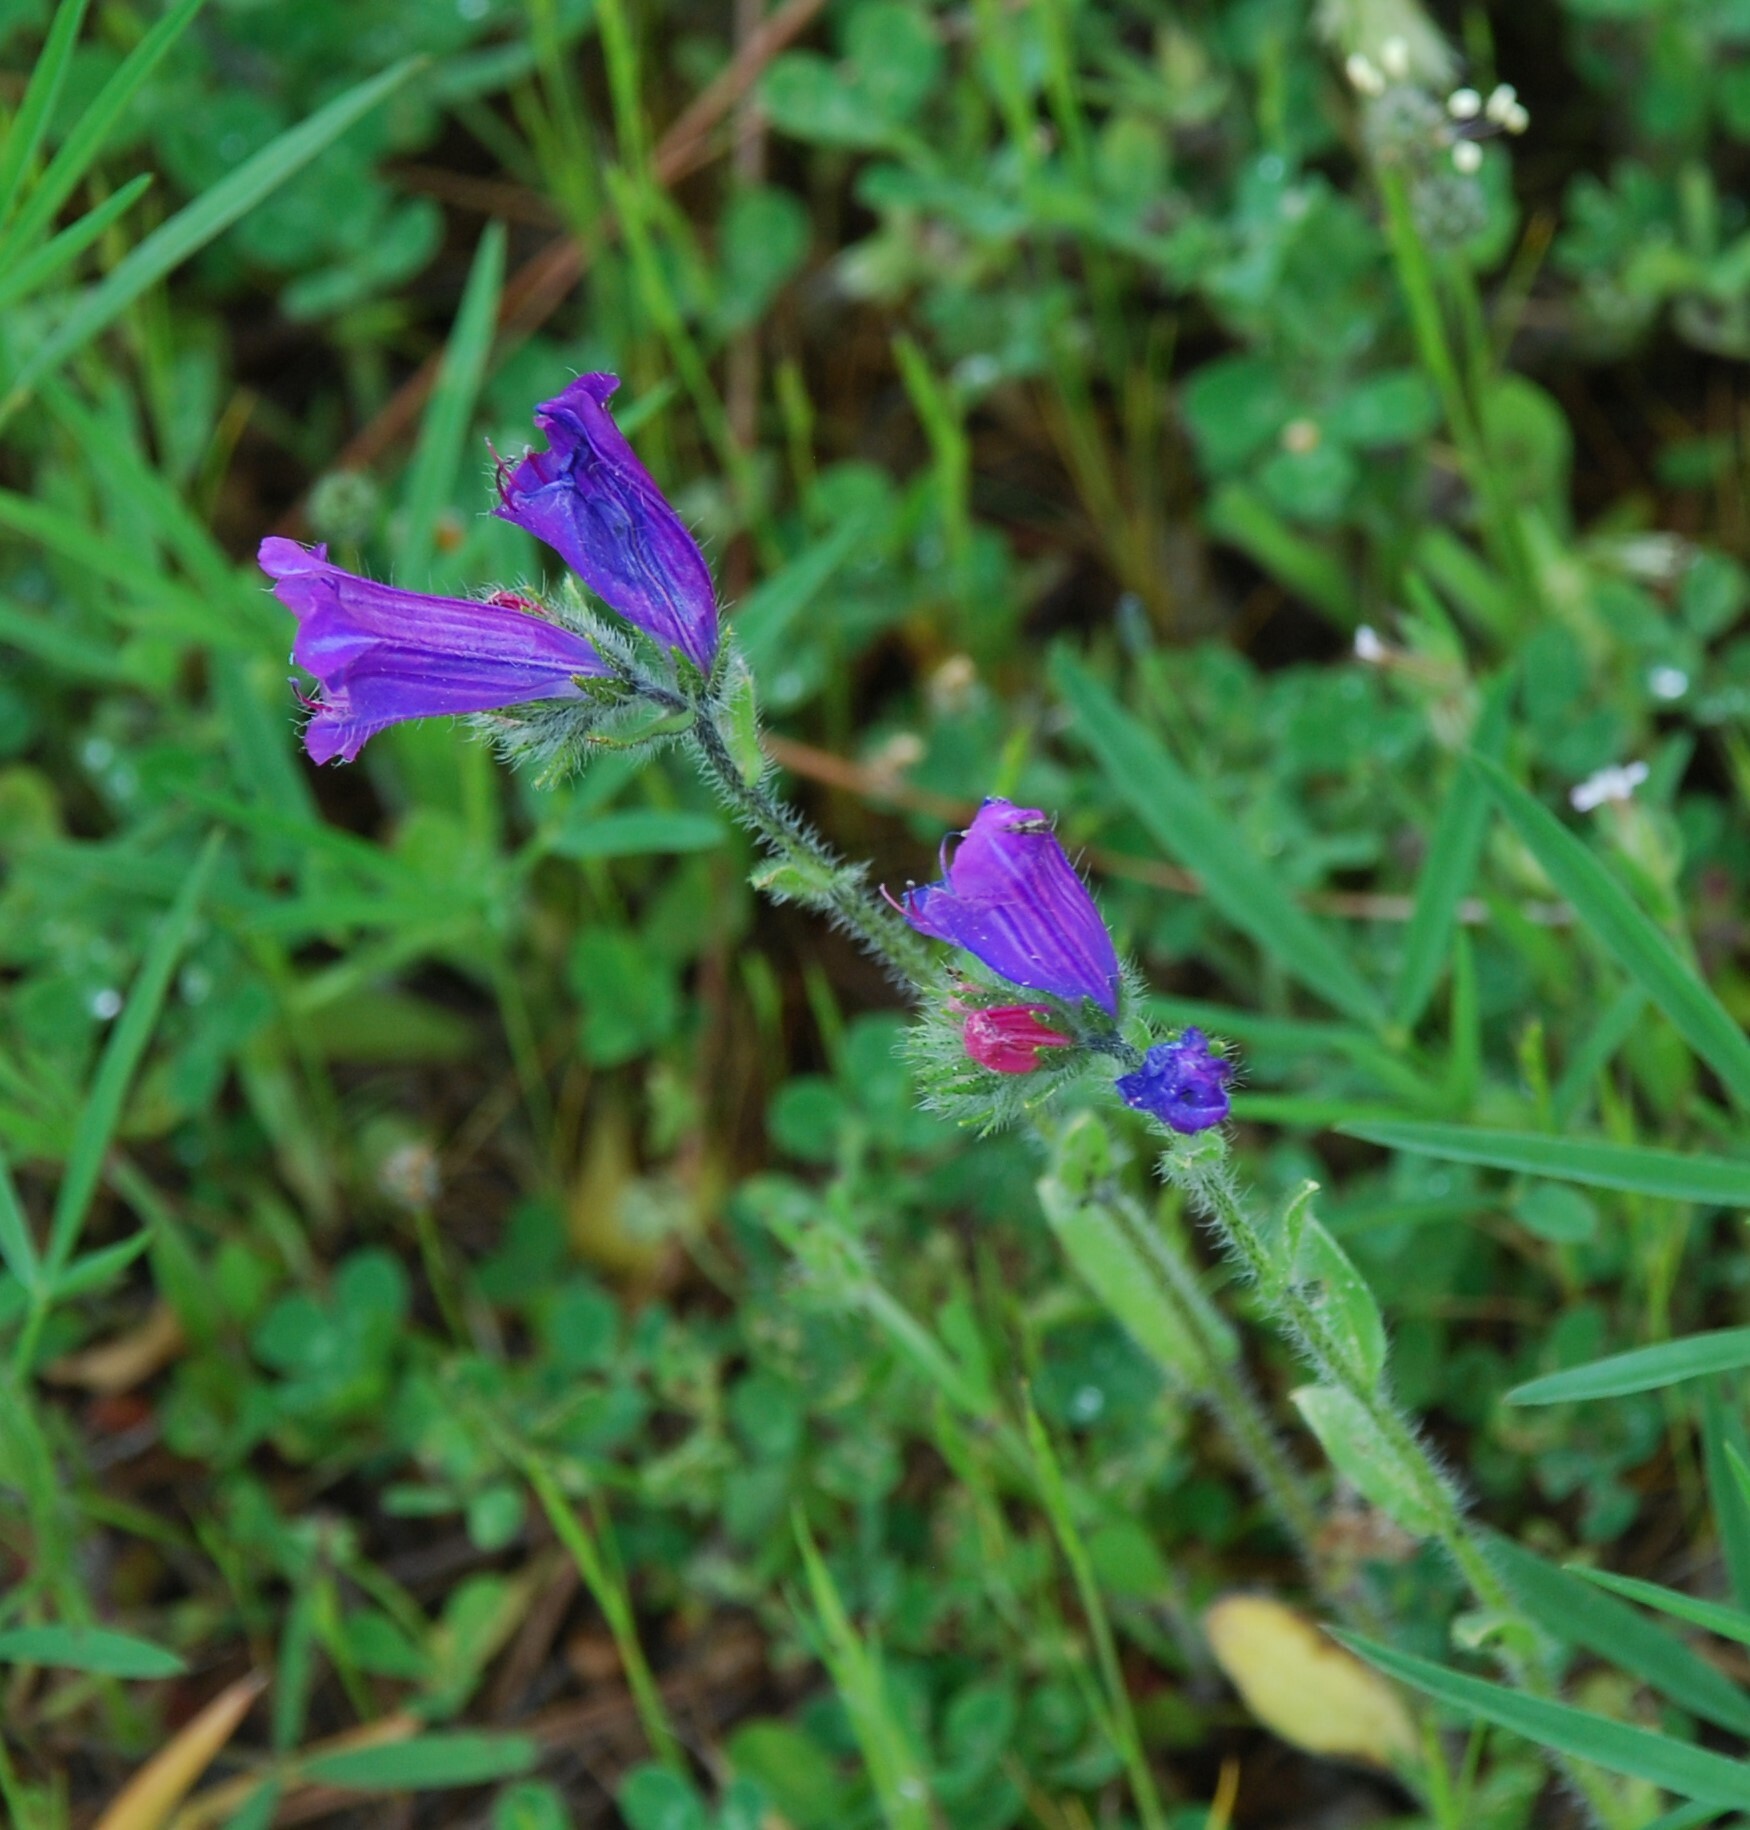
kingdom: Plantae
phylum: Tracheophyta
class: Magnoliopsida
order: Boraginales
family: Boraginaceae
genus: Echium
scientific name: Echium plantagineum
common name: Purple viper's-bugloss
